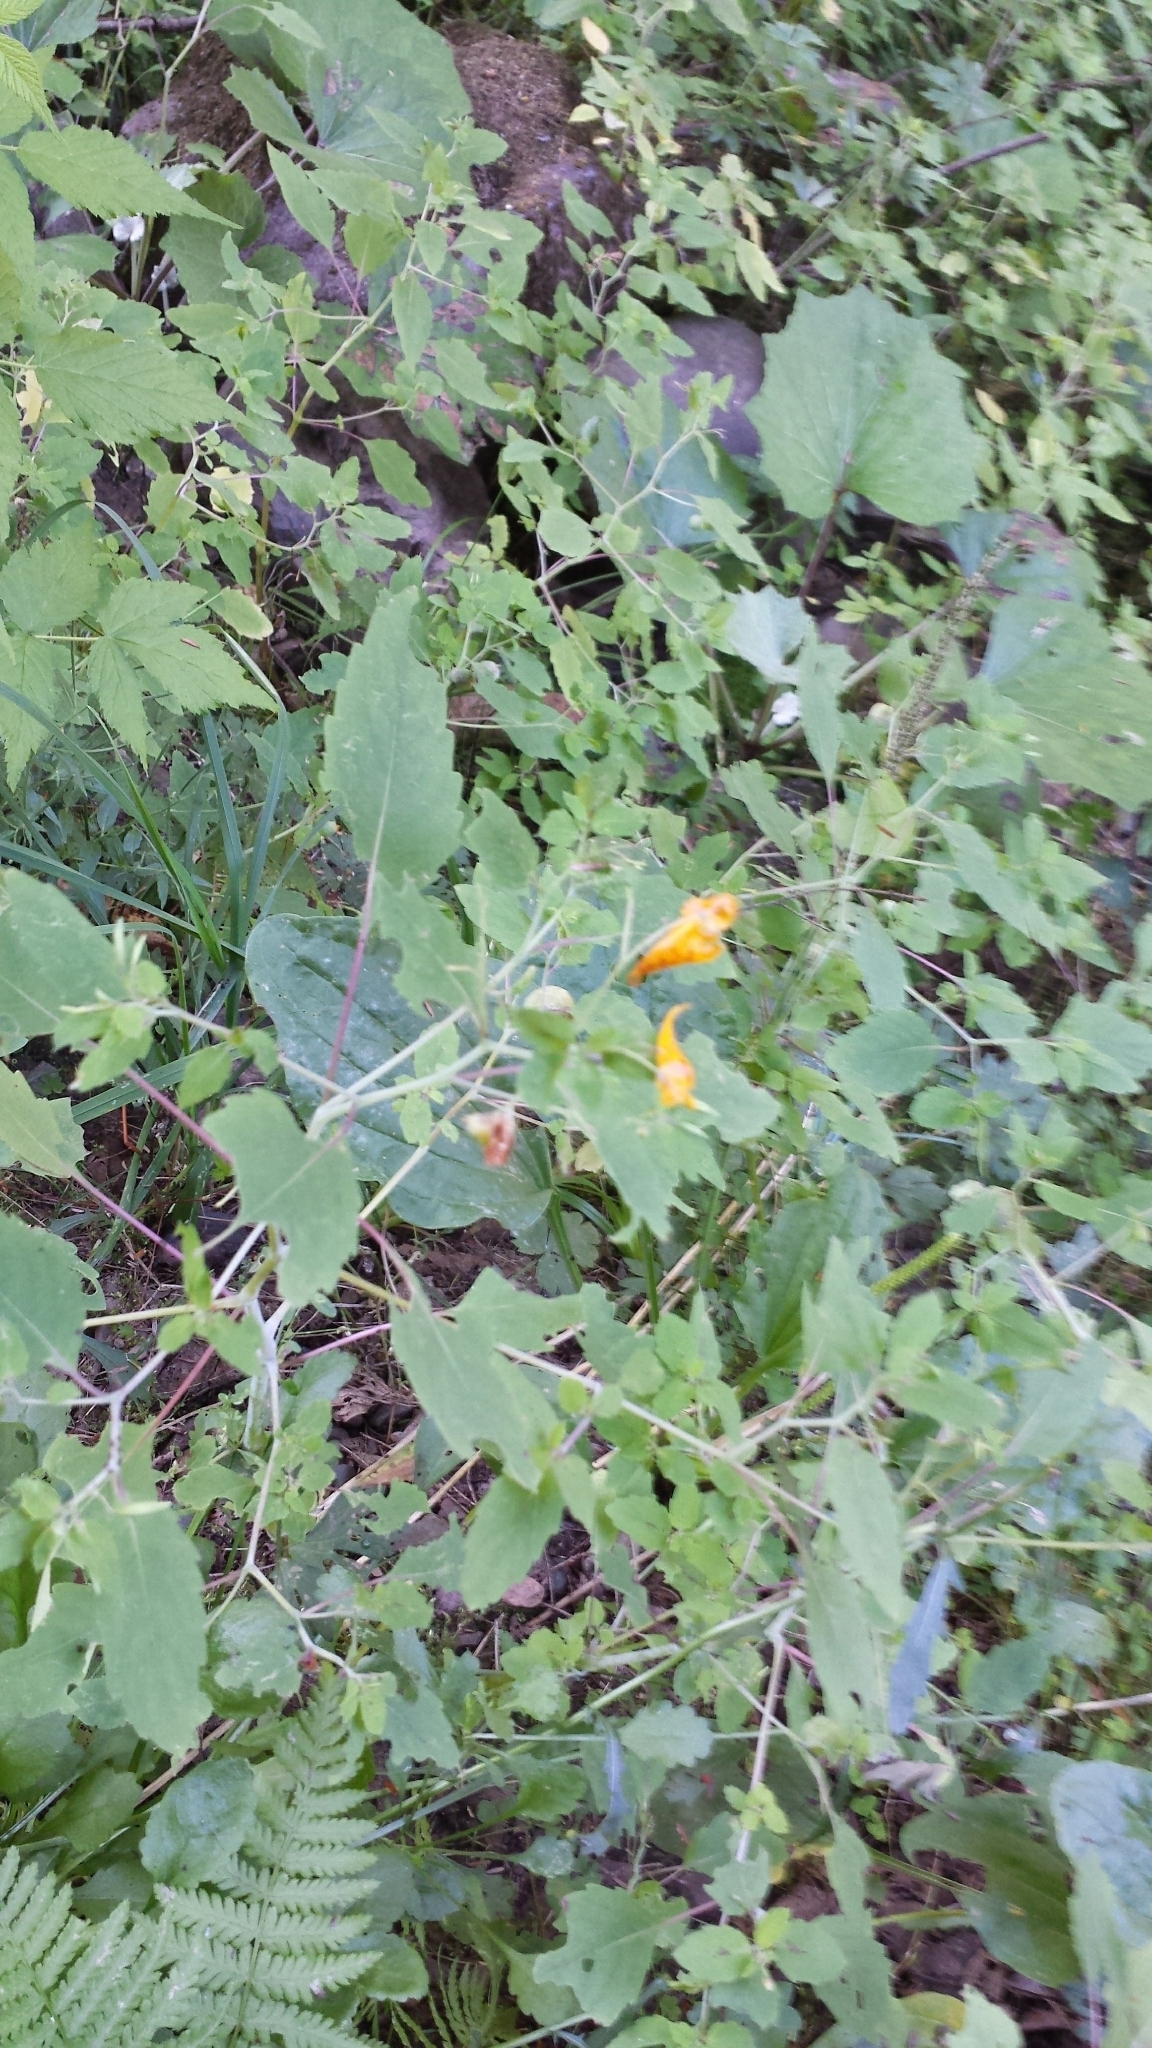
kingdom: Plantae
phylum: Tracheophyta
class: Magnoliopsida
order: Ericales
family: Balsaminaceae
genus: Impatiens
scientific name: Impatiens capensis
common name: Orange balsam
